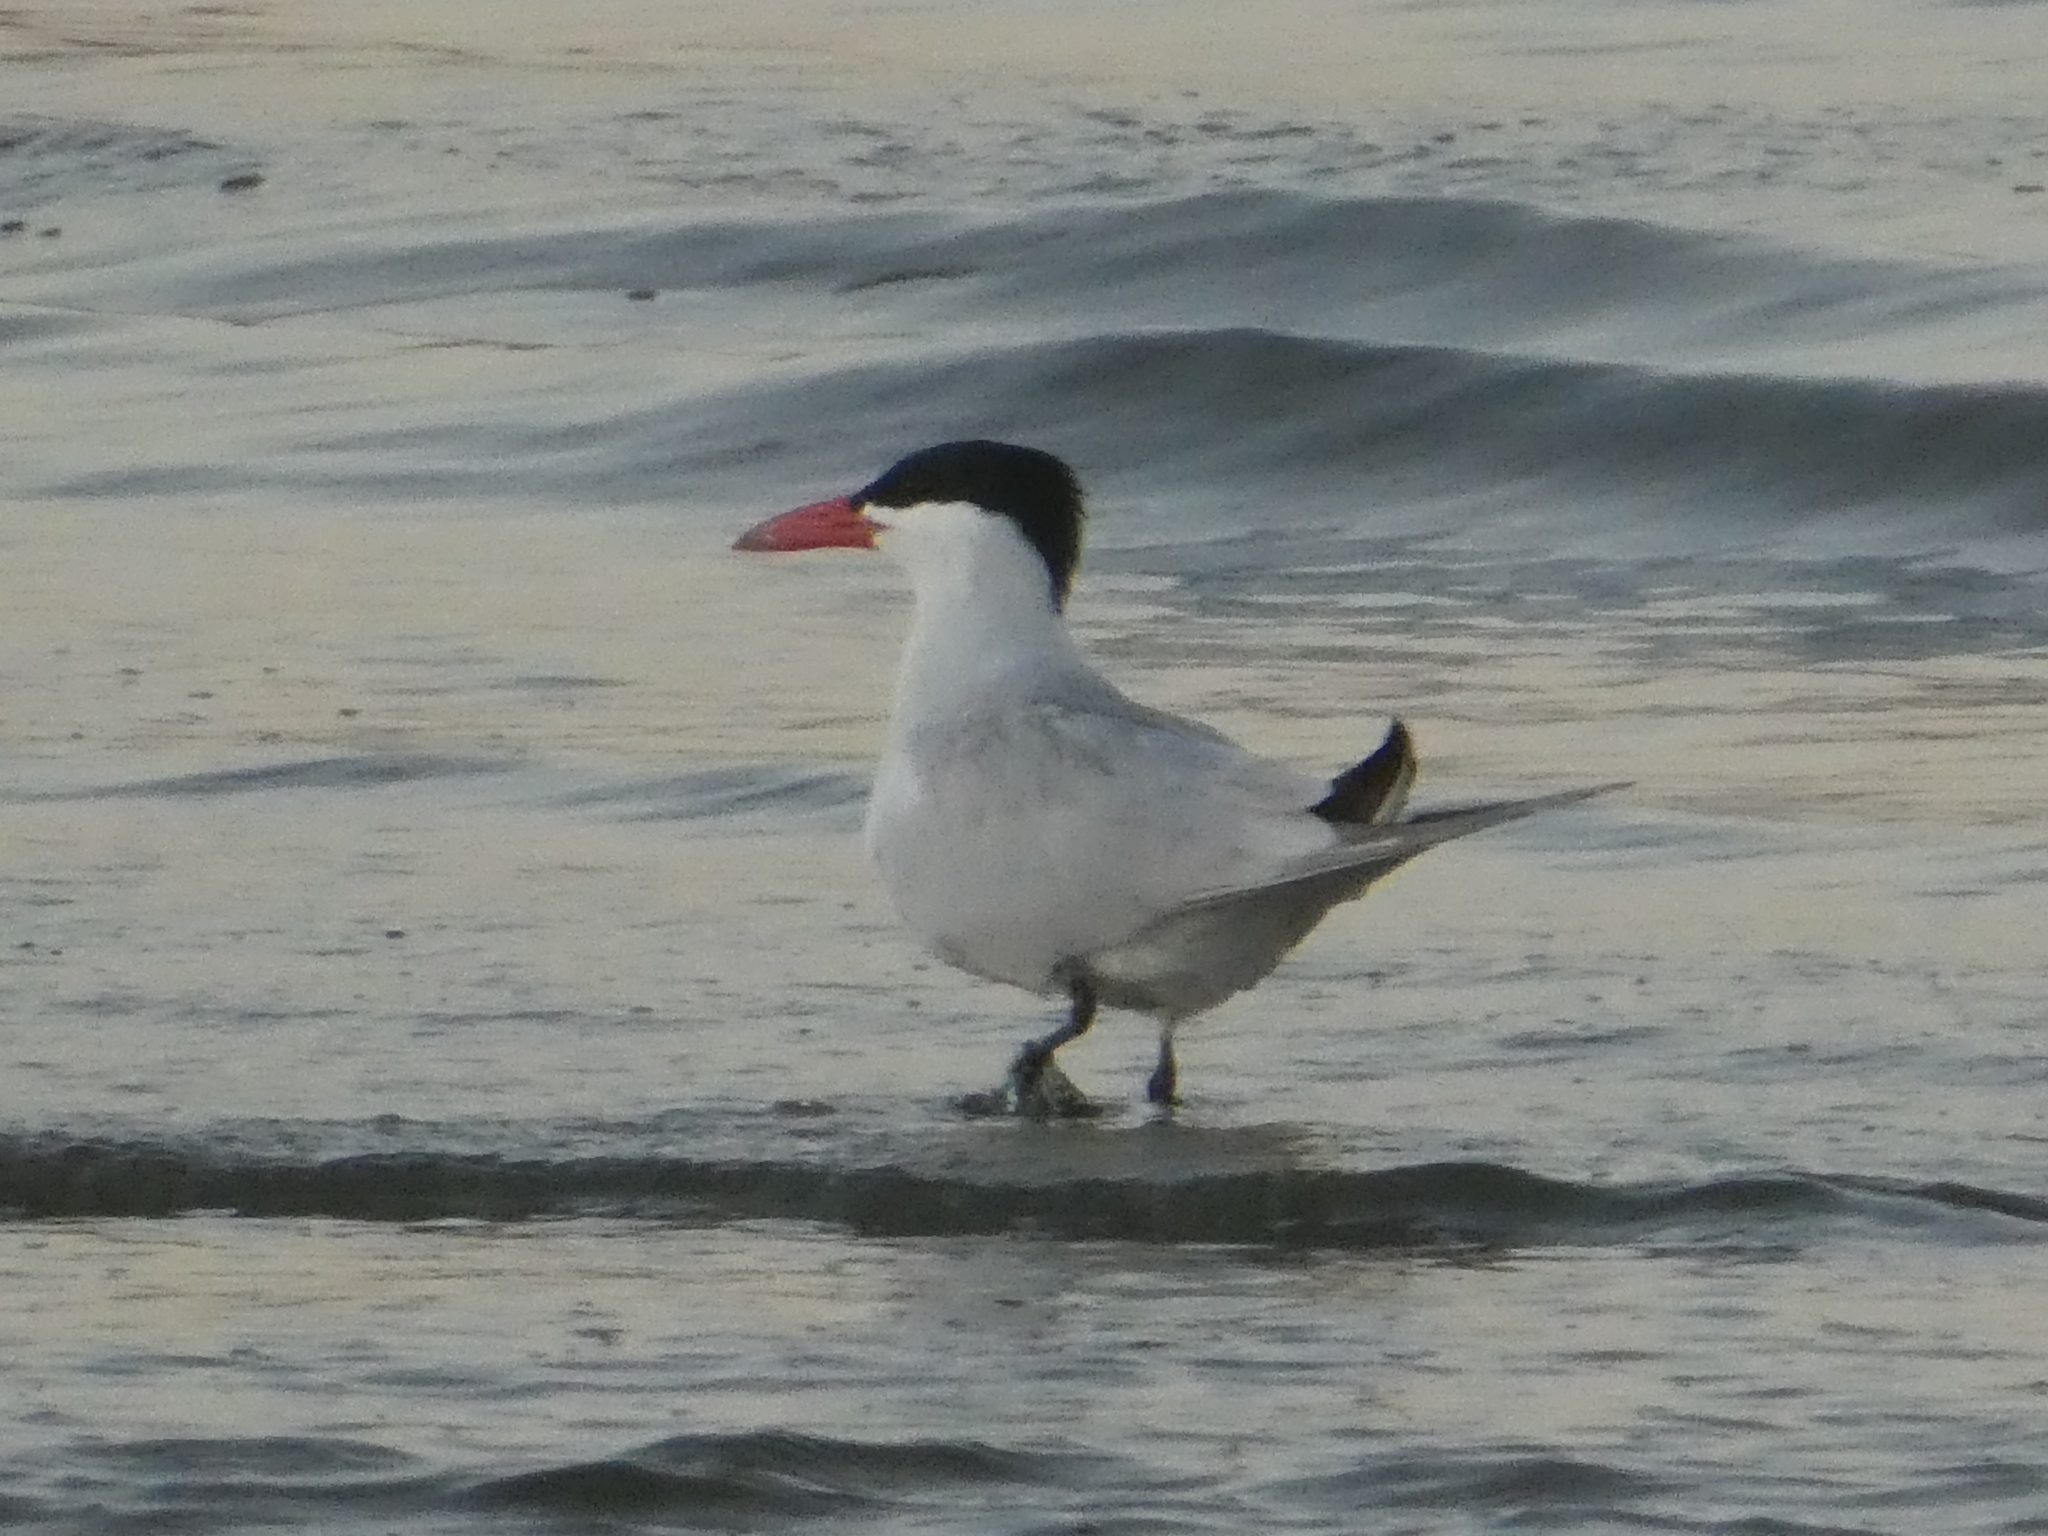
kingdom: Animalia
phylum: Chordata
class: Aves
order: Charadriiformes
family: Laridae
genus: Hydroprogne
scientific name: Hydroprogne caspia
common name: Caspian tern
